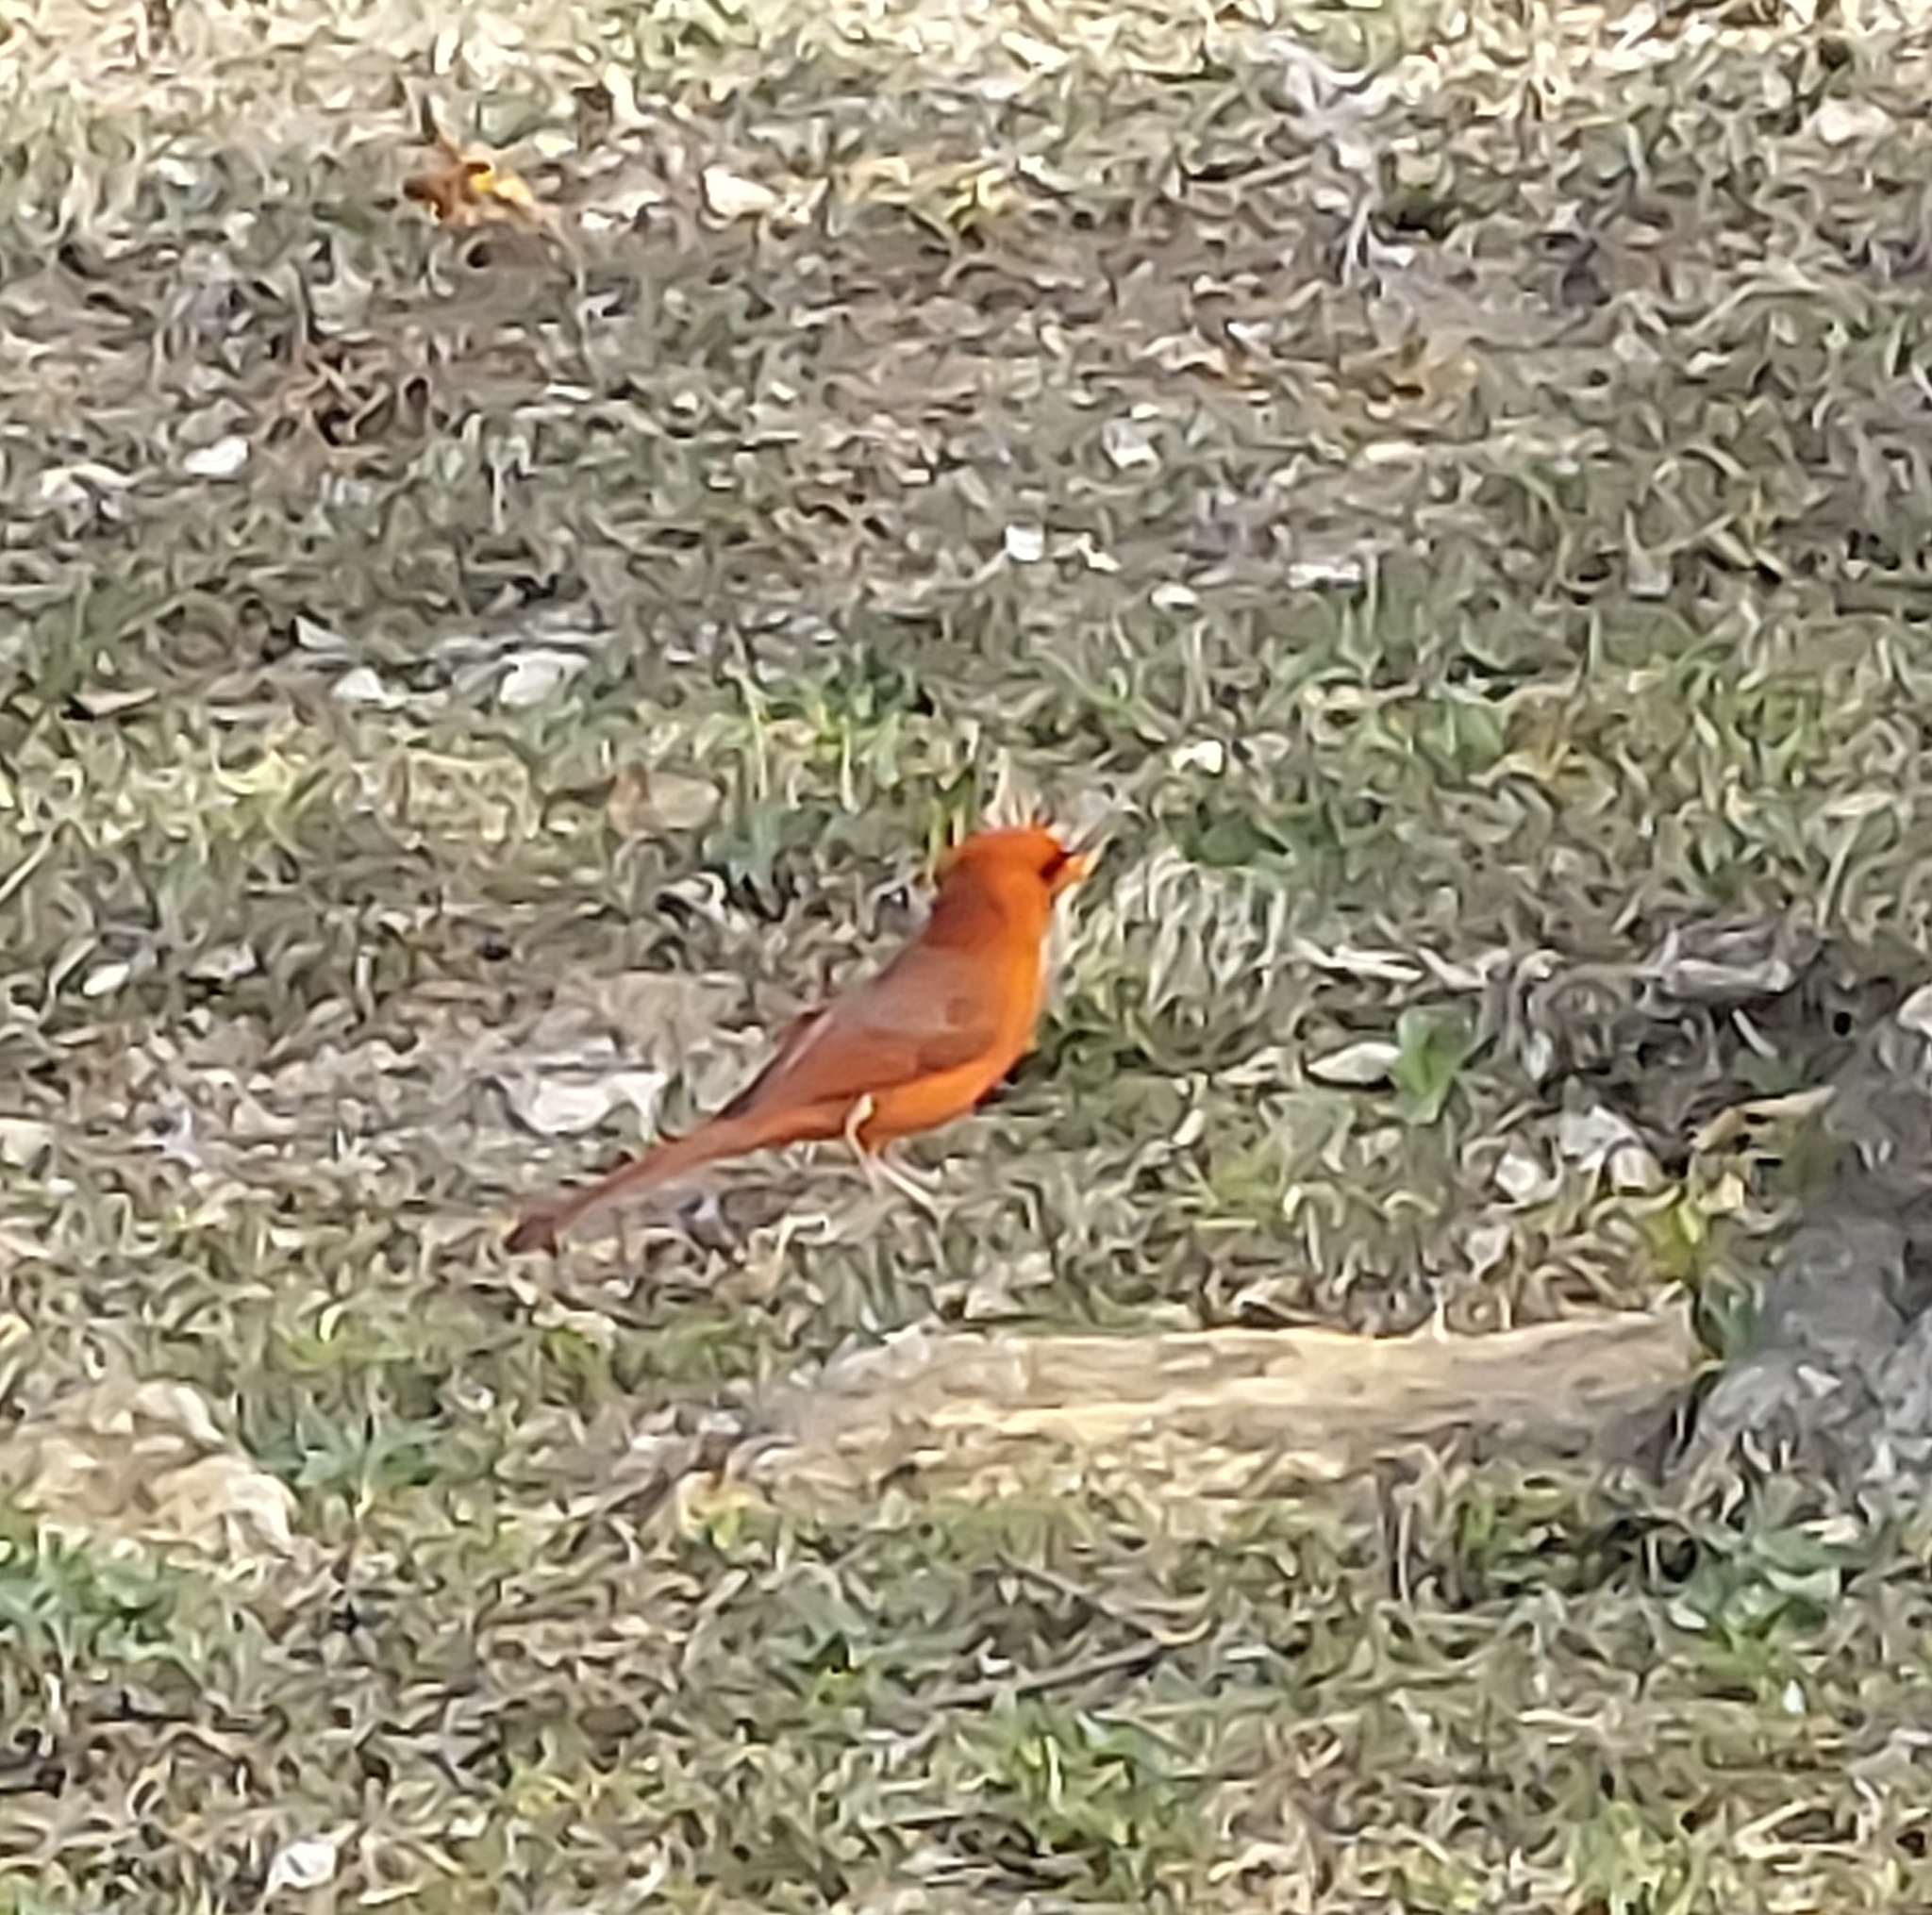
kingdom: Animalia
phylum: Chordata
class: Aves
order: Passeriformes
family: Cardinalidae
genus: Cardinalis
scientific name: Cardinalis cardinalis
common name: Northern cardinal
